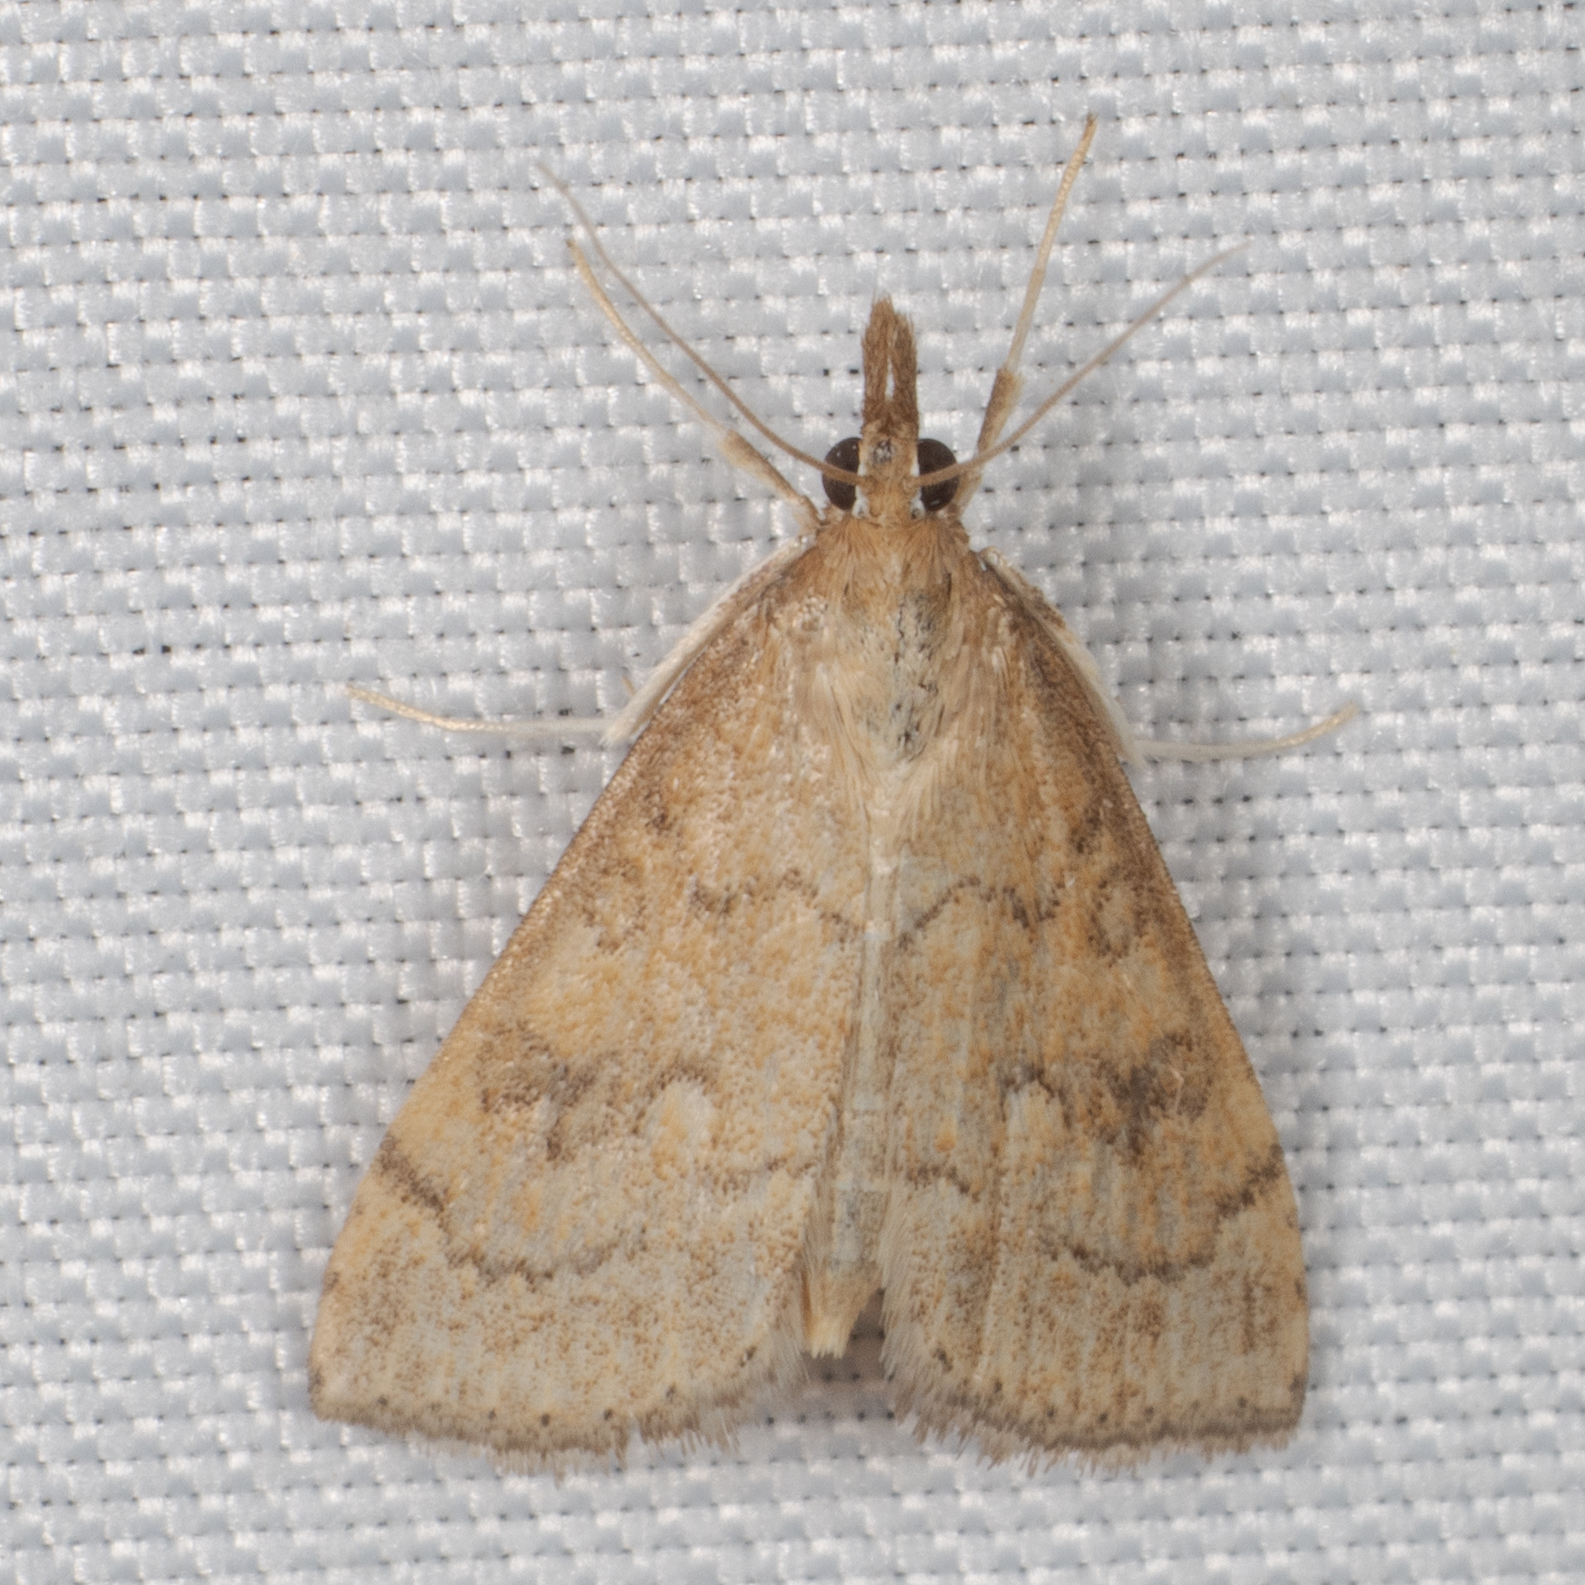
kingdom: Animalia
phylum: Arthropoda
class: Insecta
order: Lepidoptera
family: Crambidae
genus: Udea
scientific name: Udea rubigalis
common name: Celery leaftier moth
